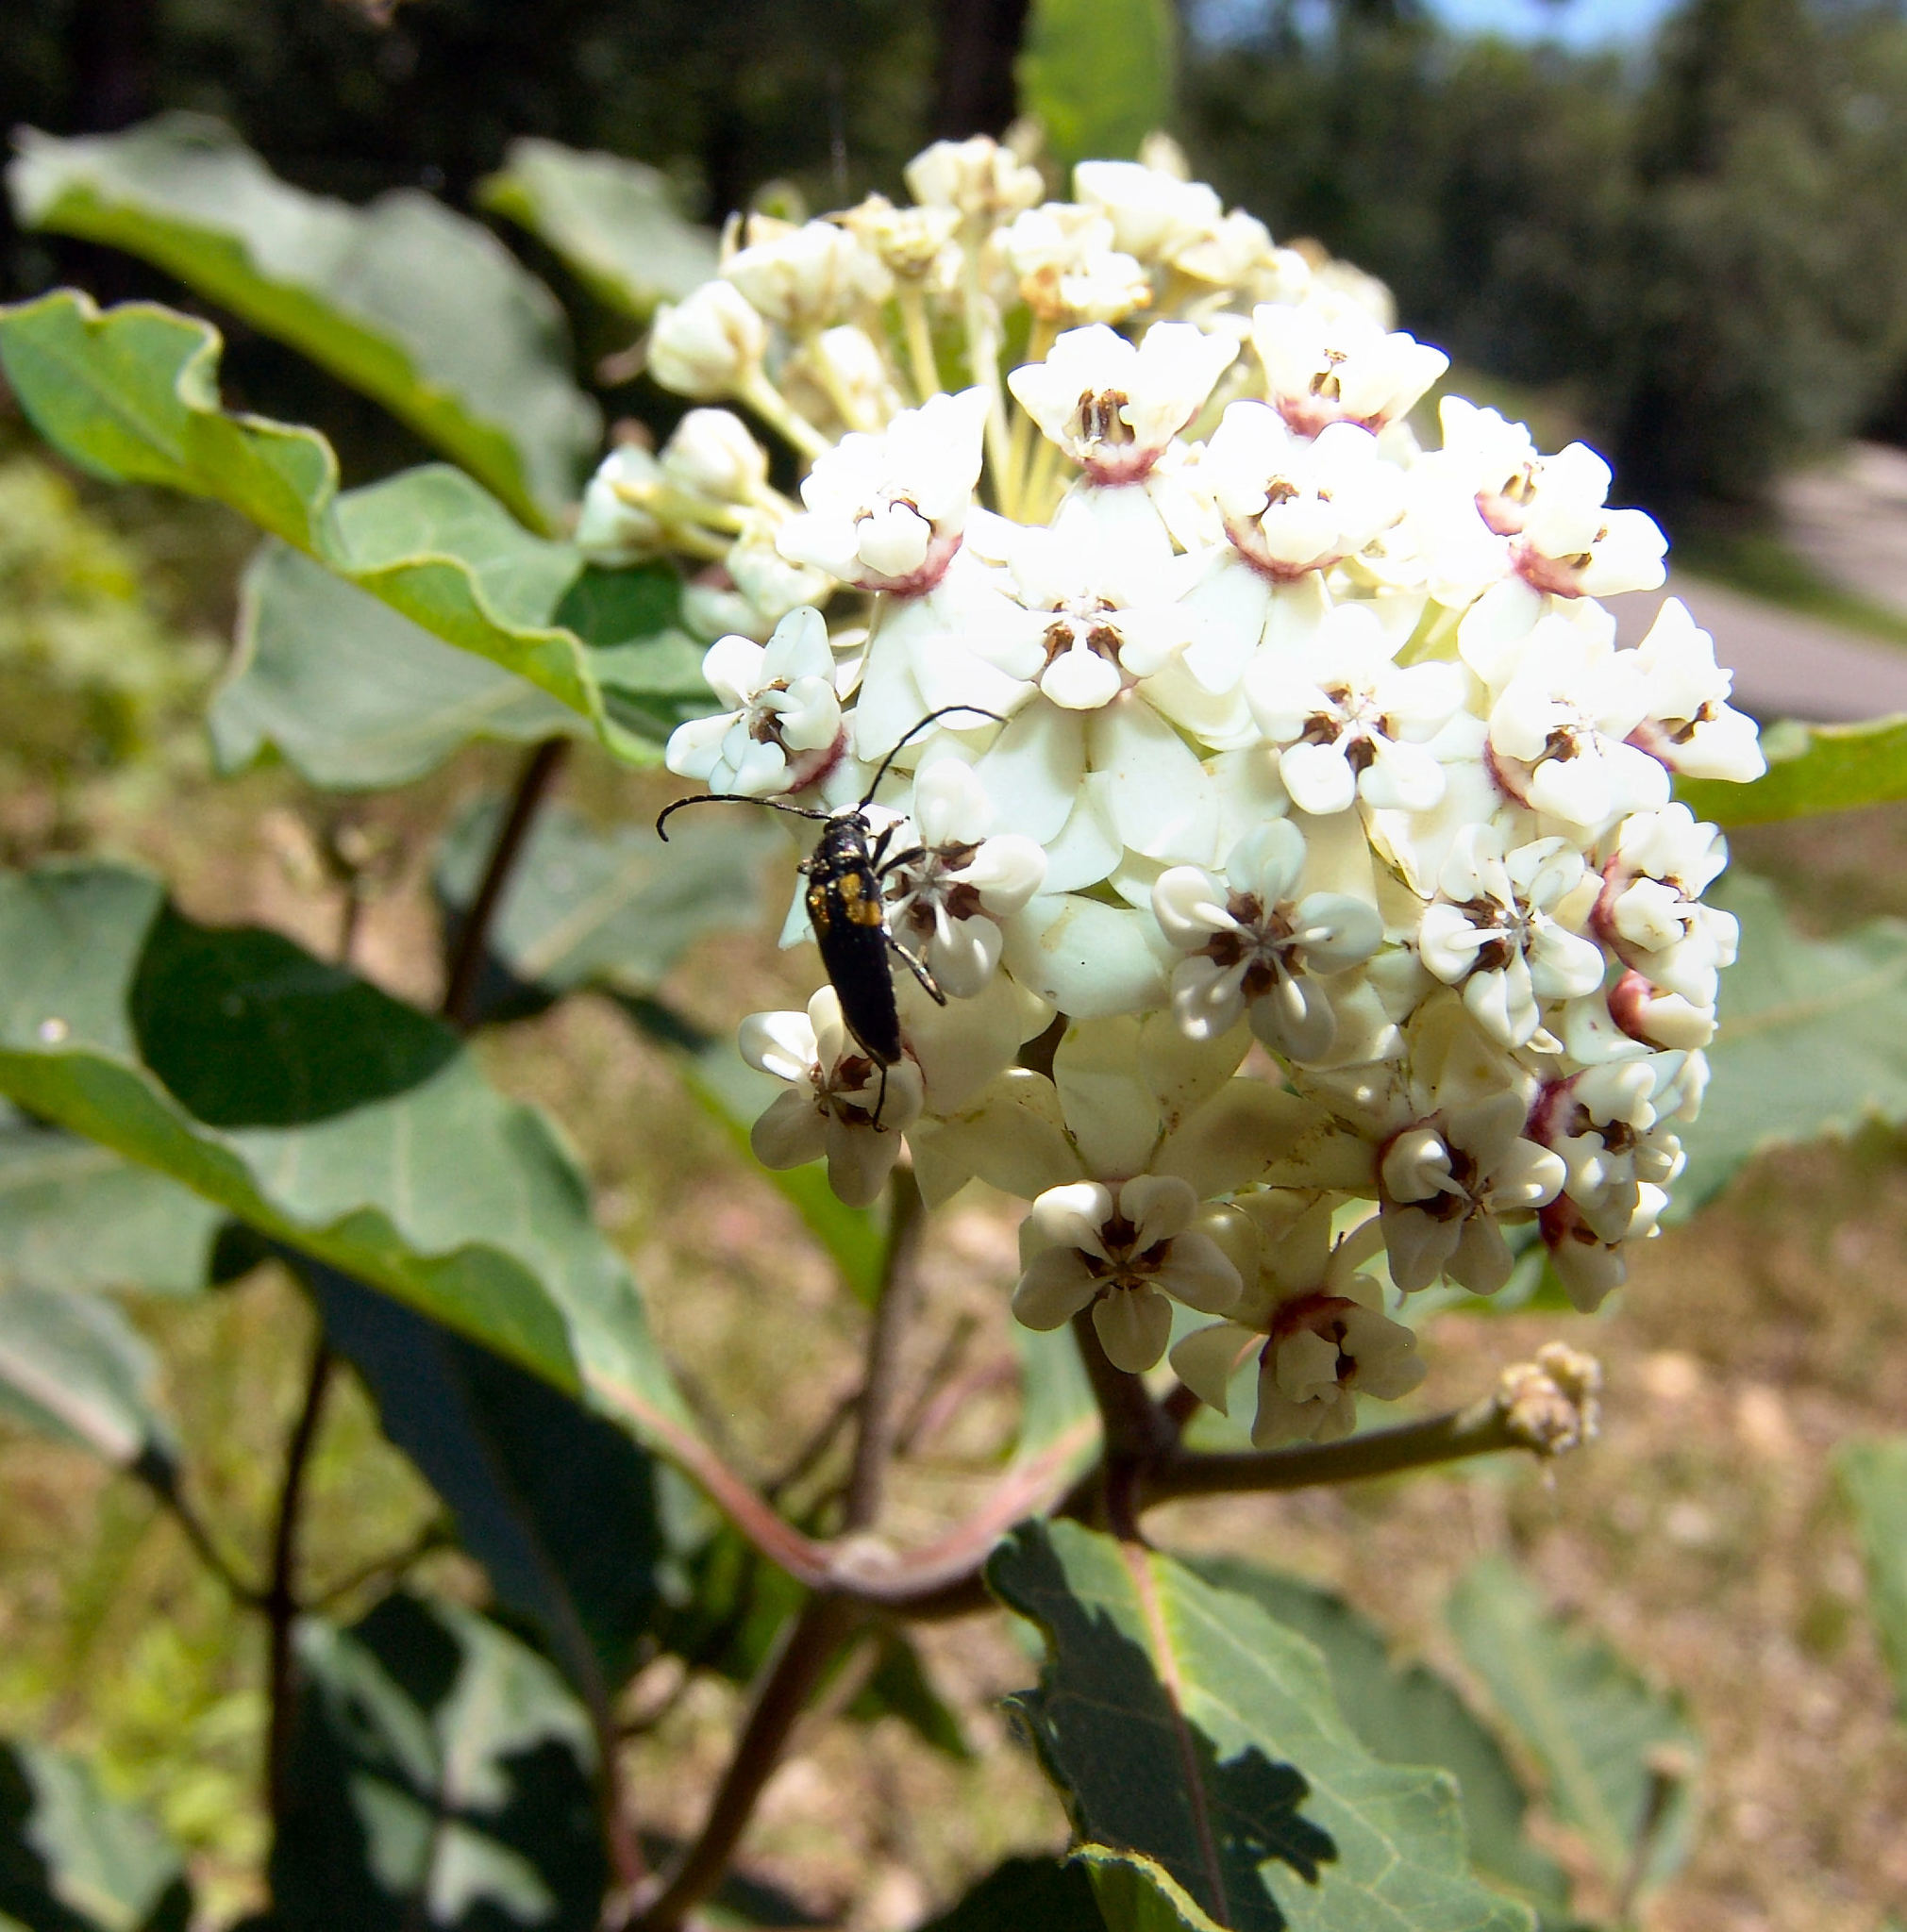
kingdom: Plantae
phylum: Tracheophyta
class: Magnoliopsida
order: Gentianales
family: Apocynaceae
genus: Asclepias
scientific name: Asclepias variegata
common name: Variegated milkweed
